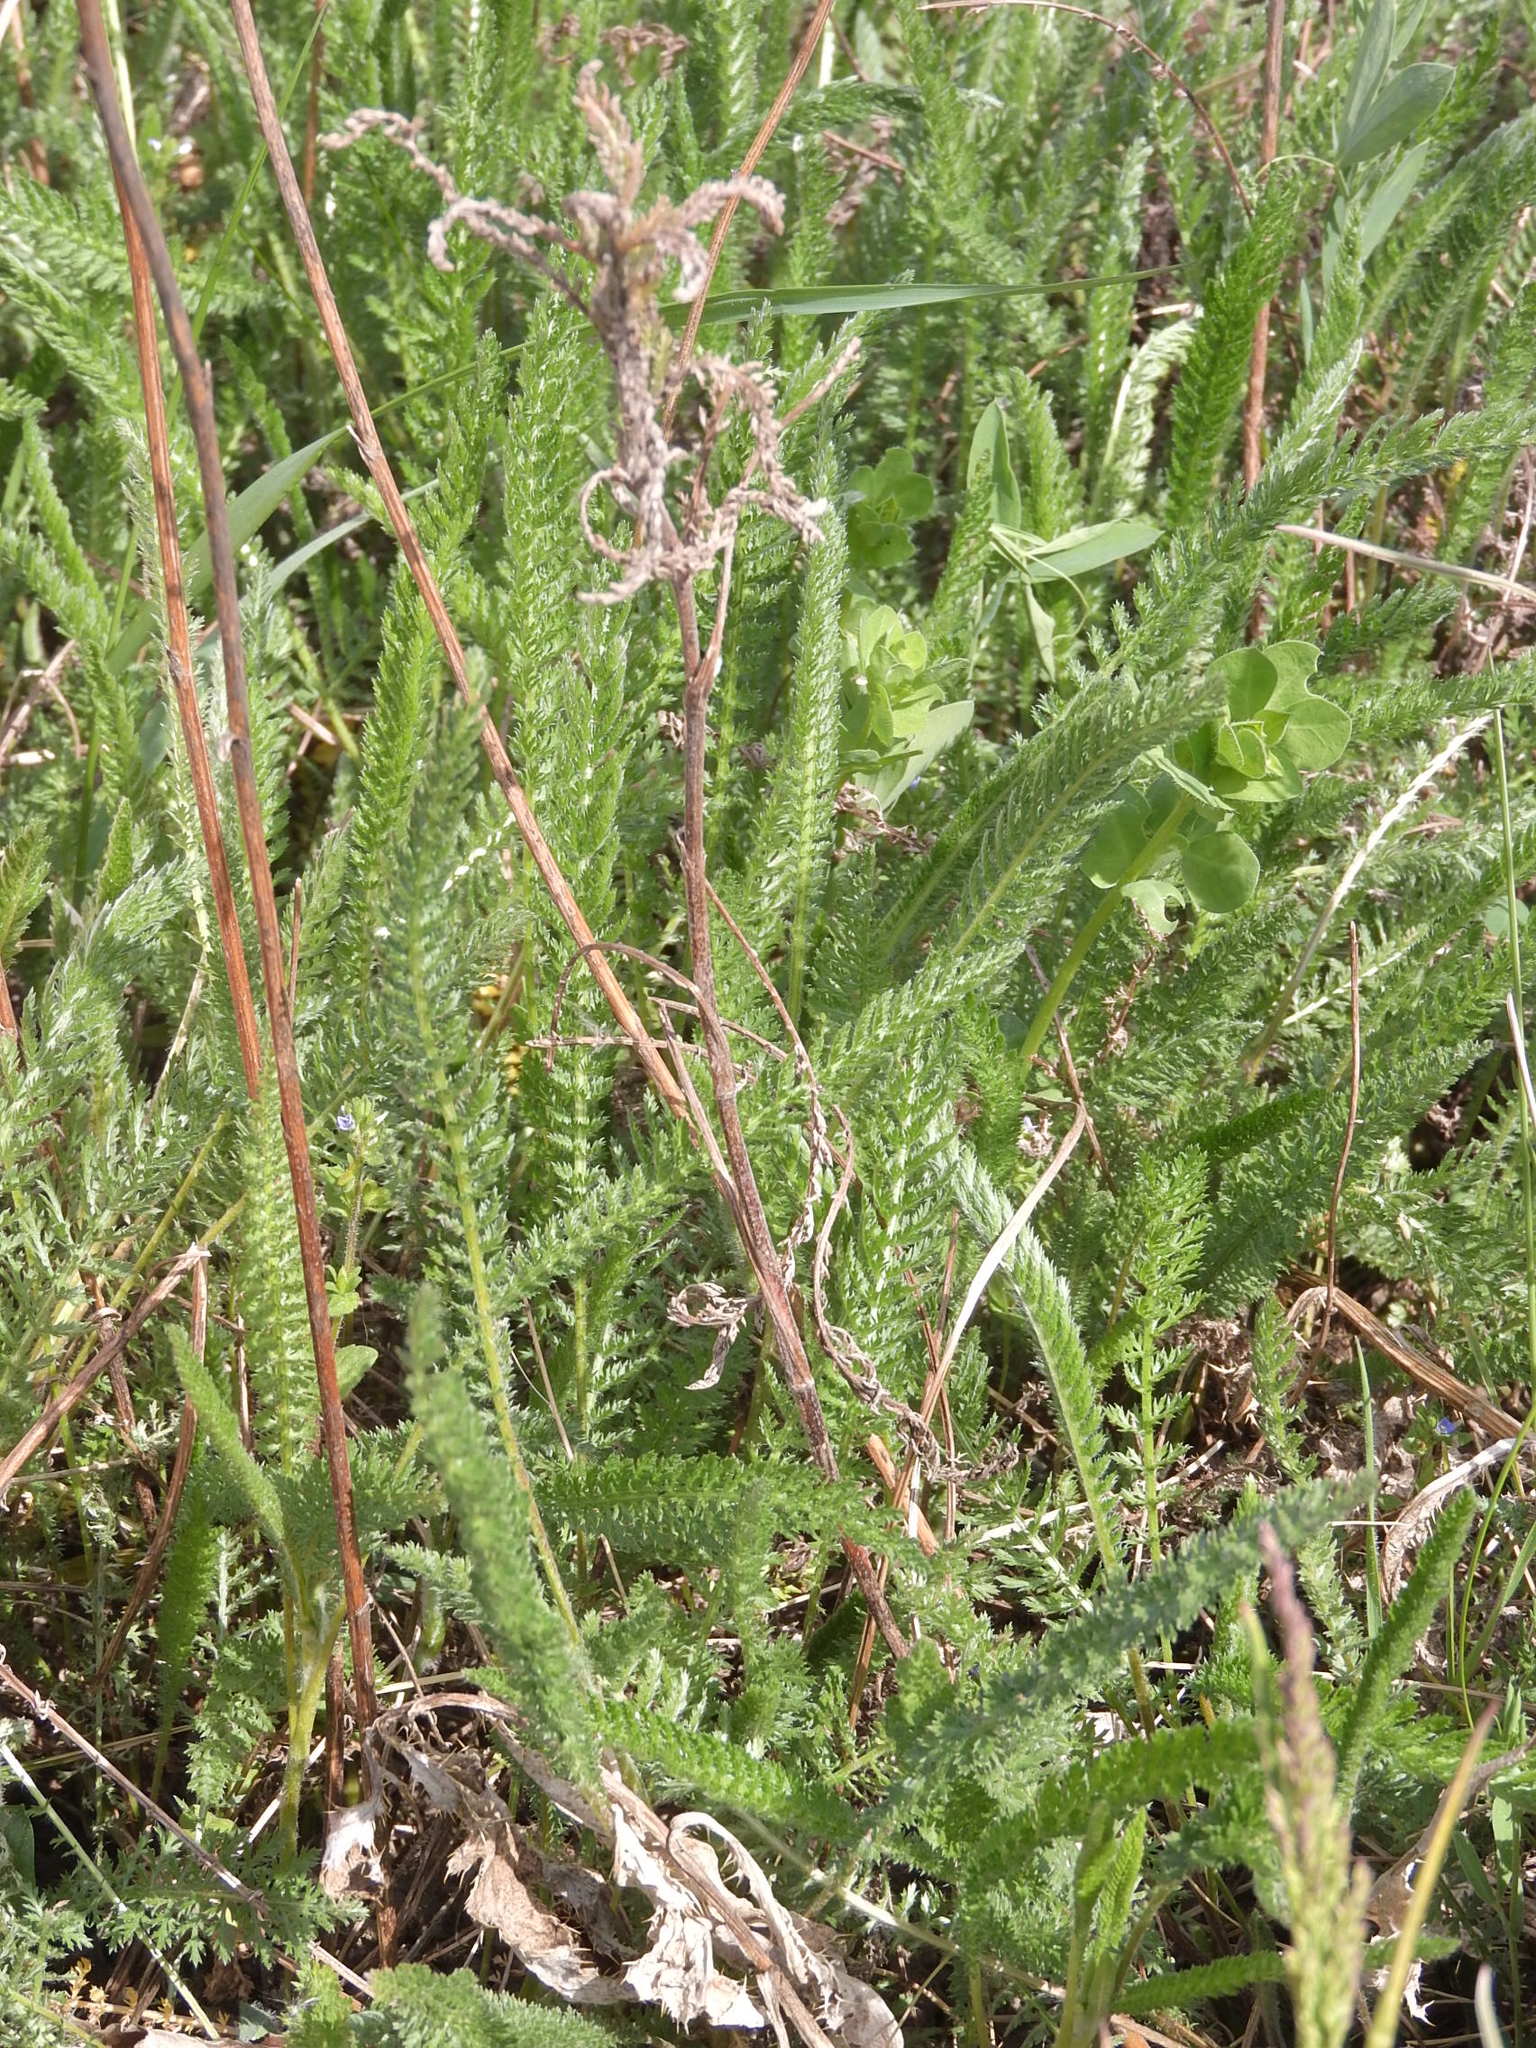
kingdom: Plantae
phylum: Tracheophyta
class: Magnoliopsida
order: Asterales
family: Asteraceae
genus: Achillea
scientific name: Achillea millefolium
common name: Yarrow
